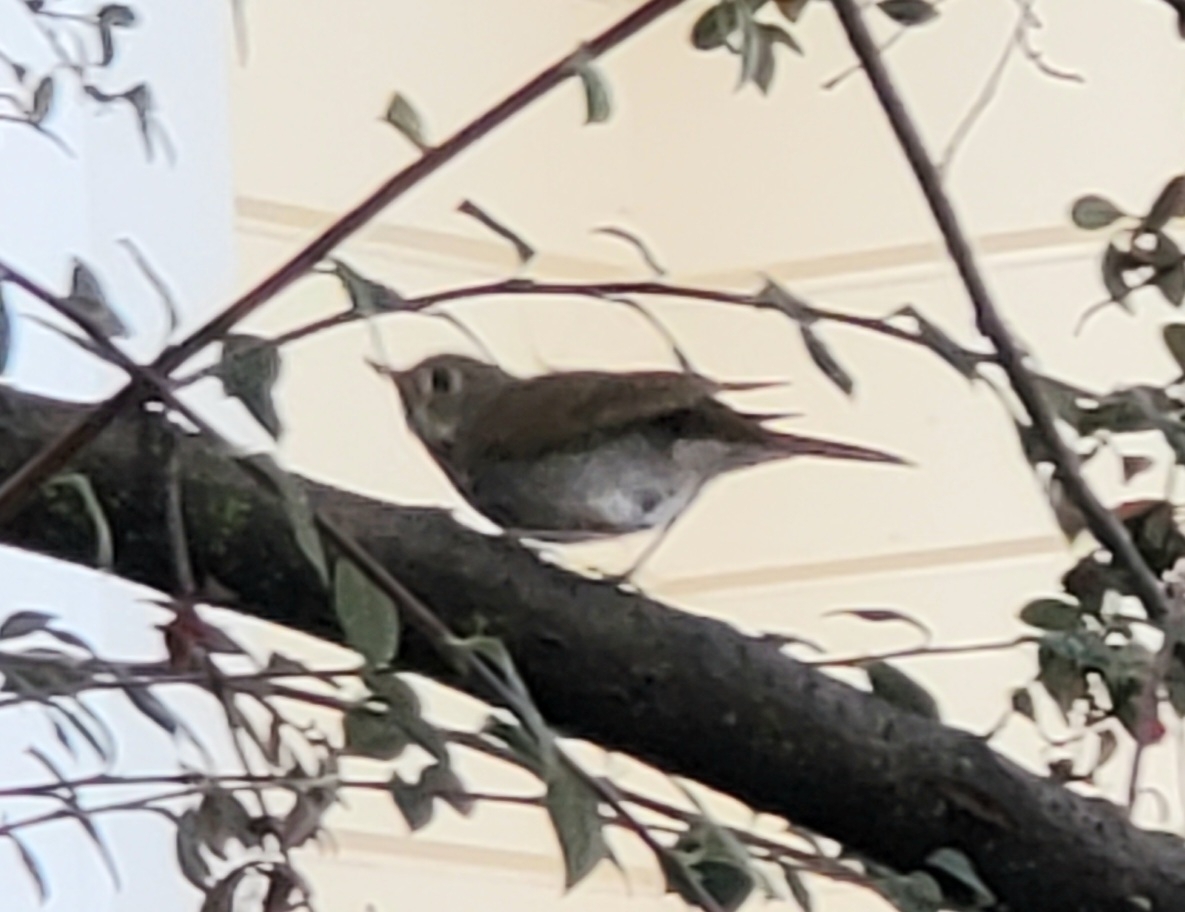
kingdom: Animalia
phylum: Chordata
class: Aves
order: Passeriformes
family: Turdidae
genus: Catharus
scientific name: Catharus guttatus
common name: Hermit thrush
